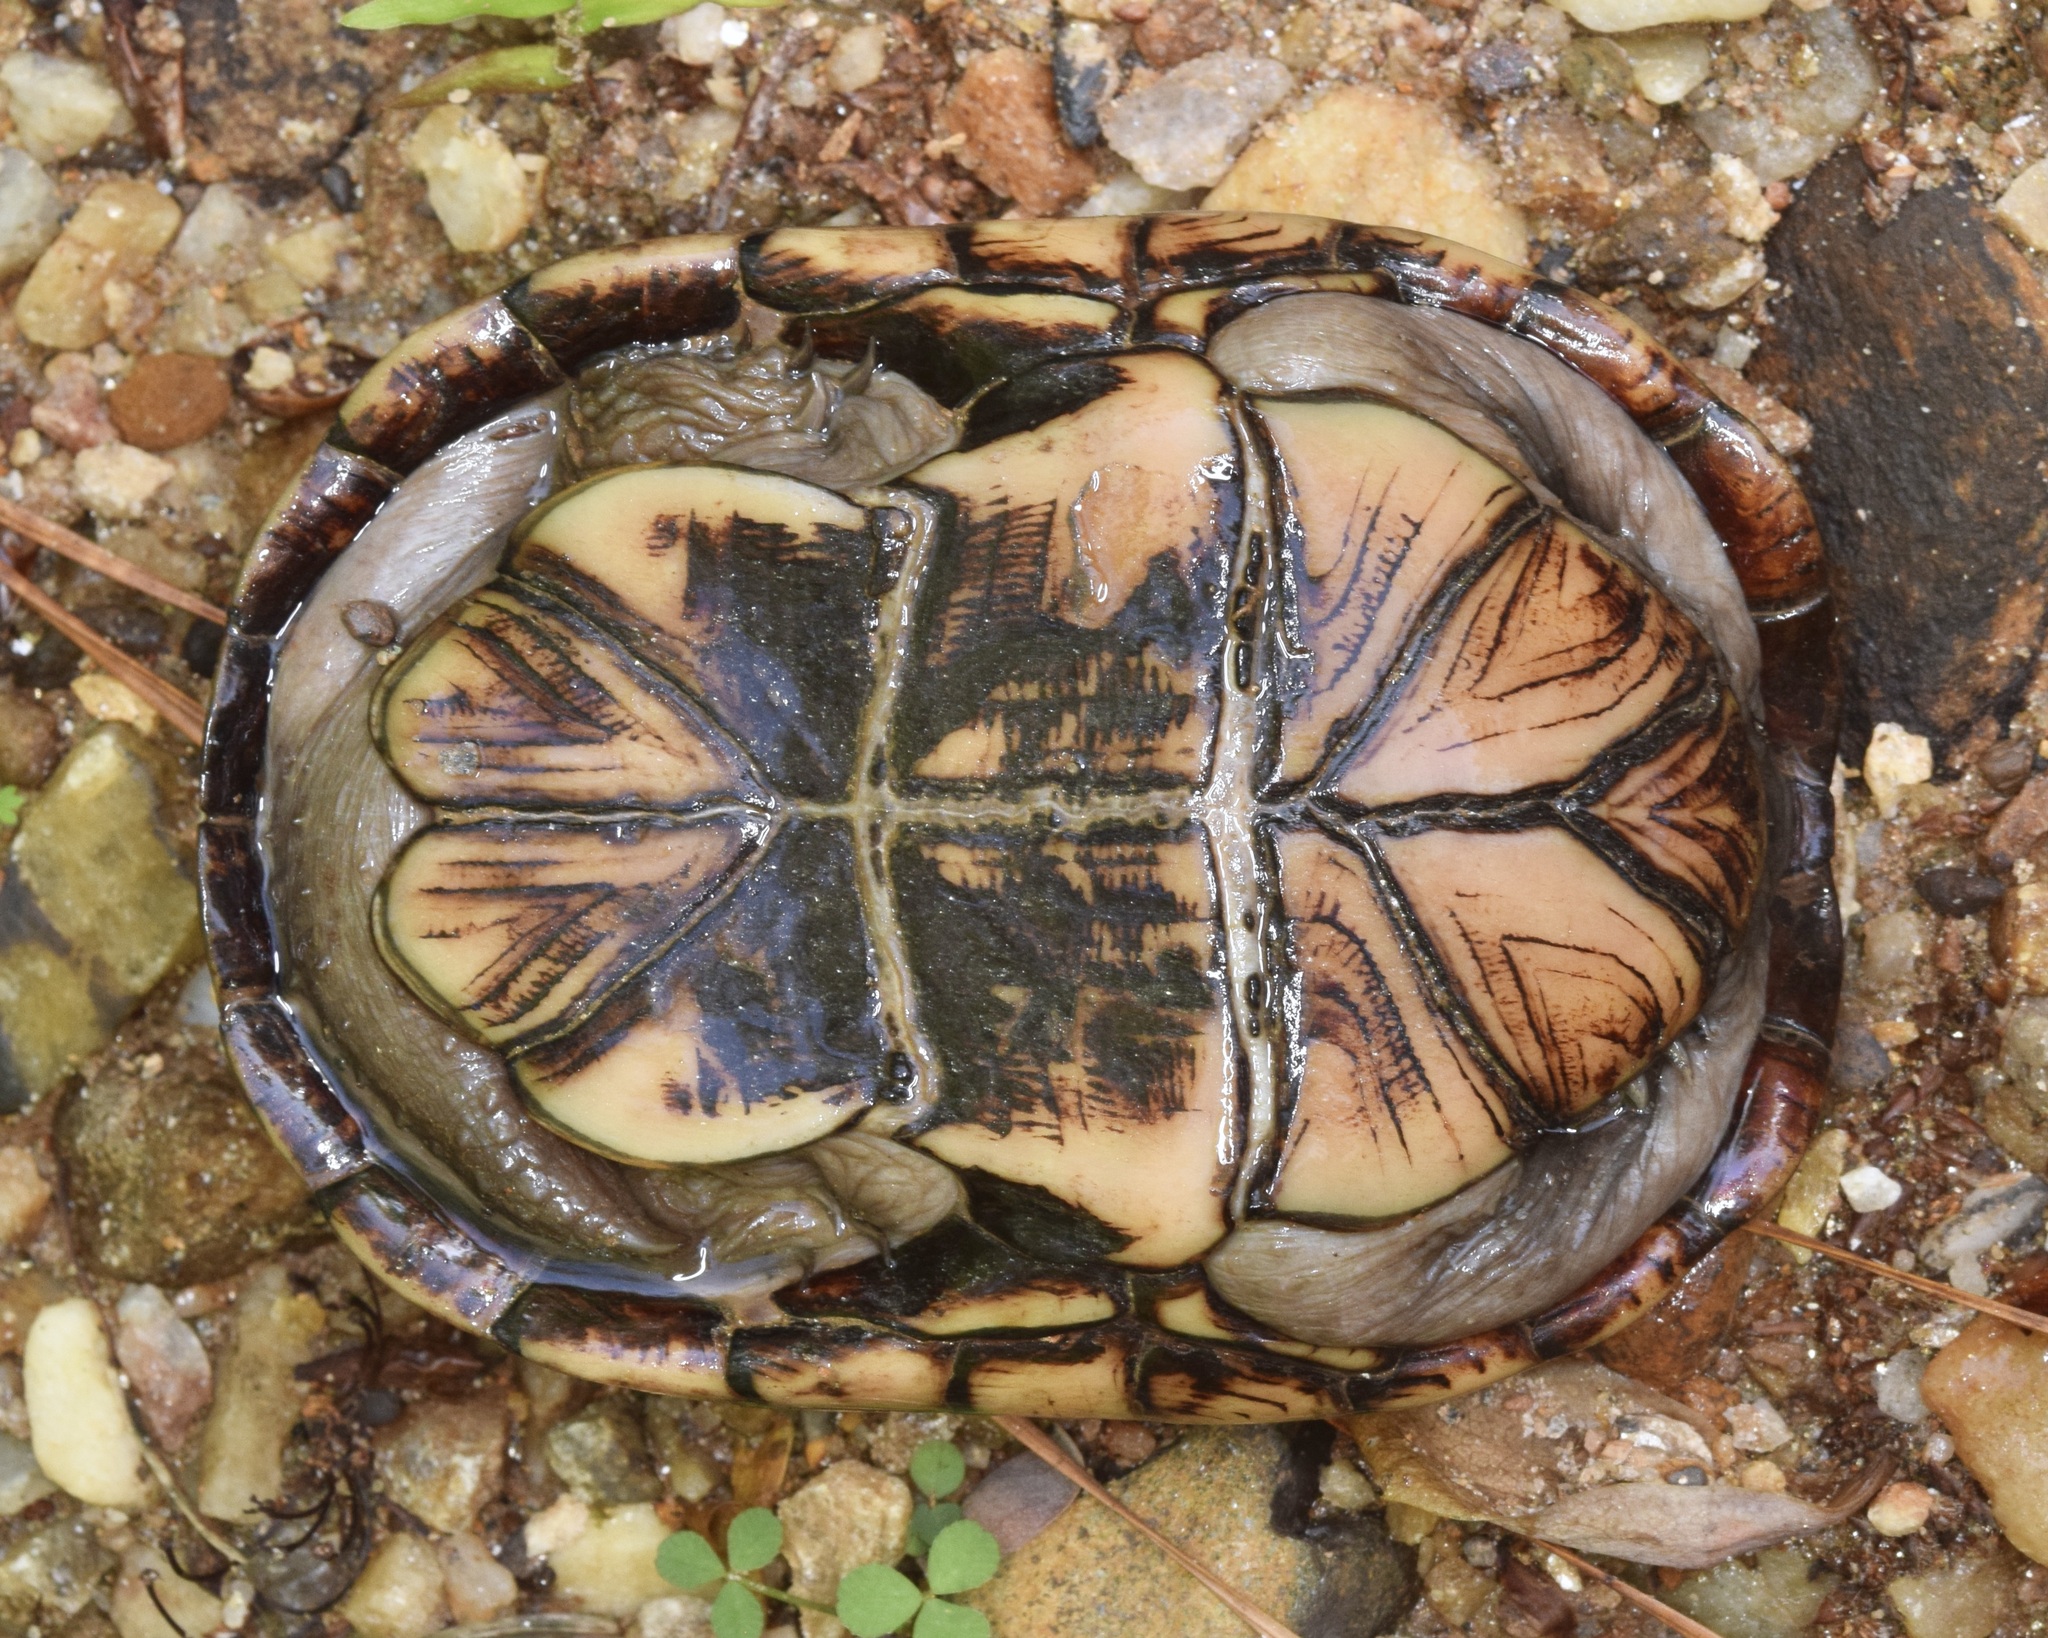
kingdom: Animalia
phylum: Chordata
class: Testudines
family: Kinosternidae
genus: Kinosternon
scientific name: Kinosternon subrubrum
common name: Eastern mud turtle
